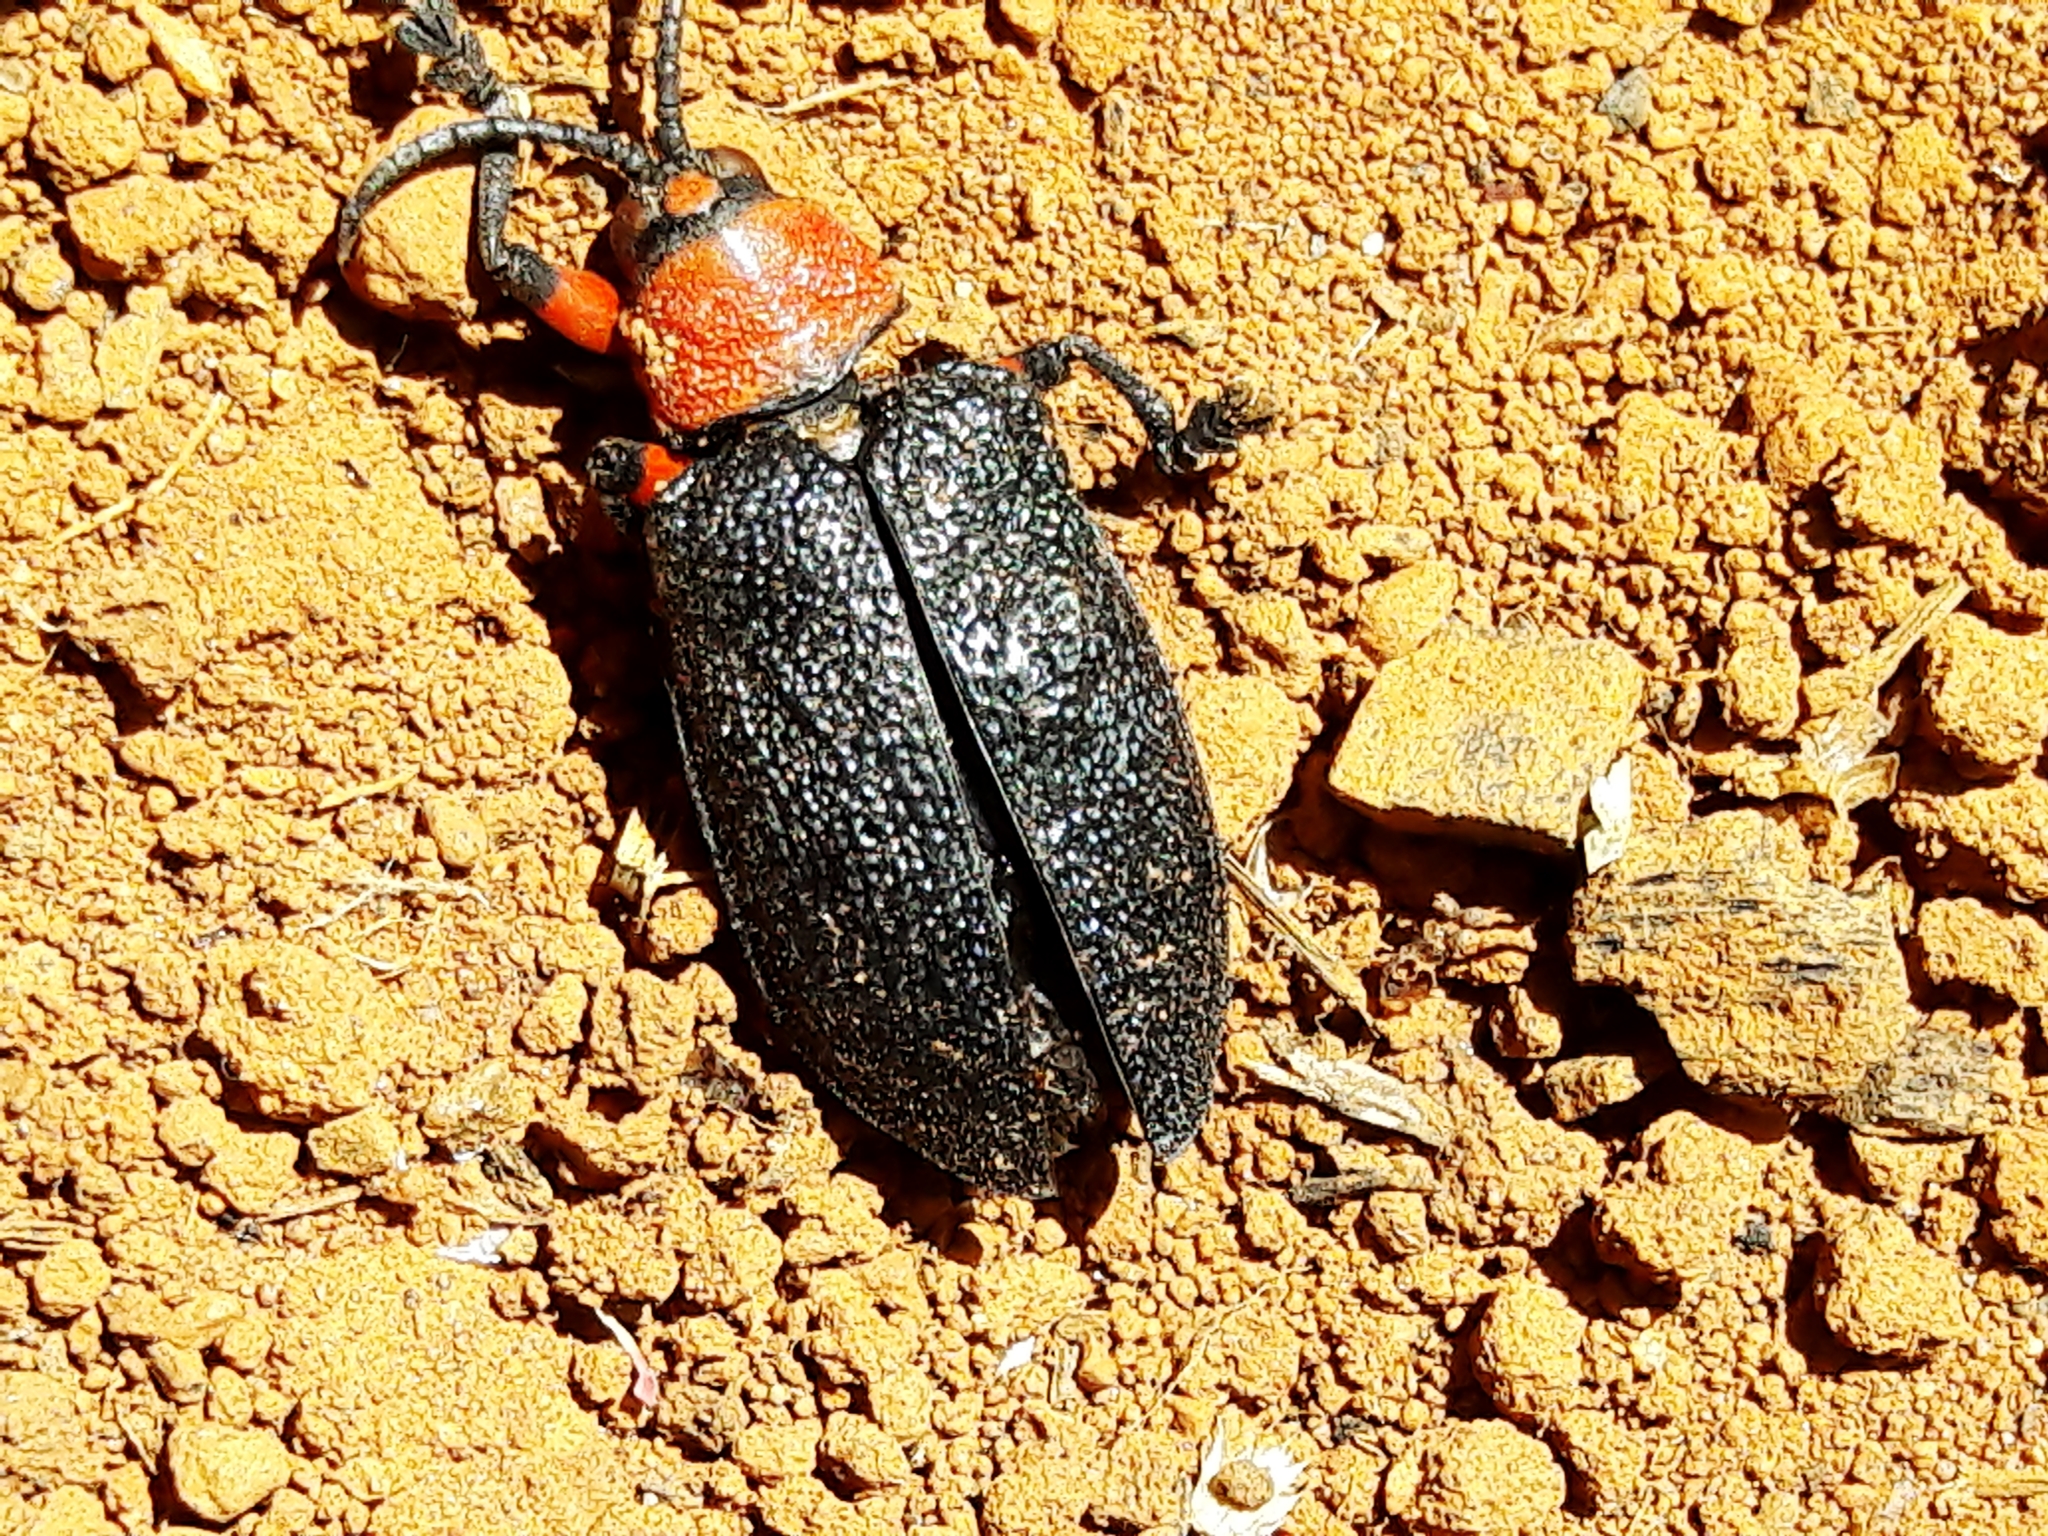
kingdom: Animalia
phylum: Arthropoda
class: Insecta
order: Coleoptera
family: Chrysomelidae
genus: Coraliomela
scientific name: Coraliomela brunnea
